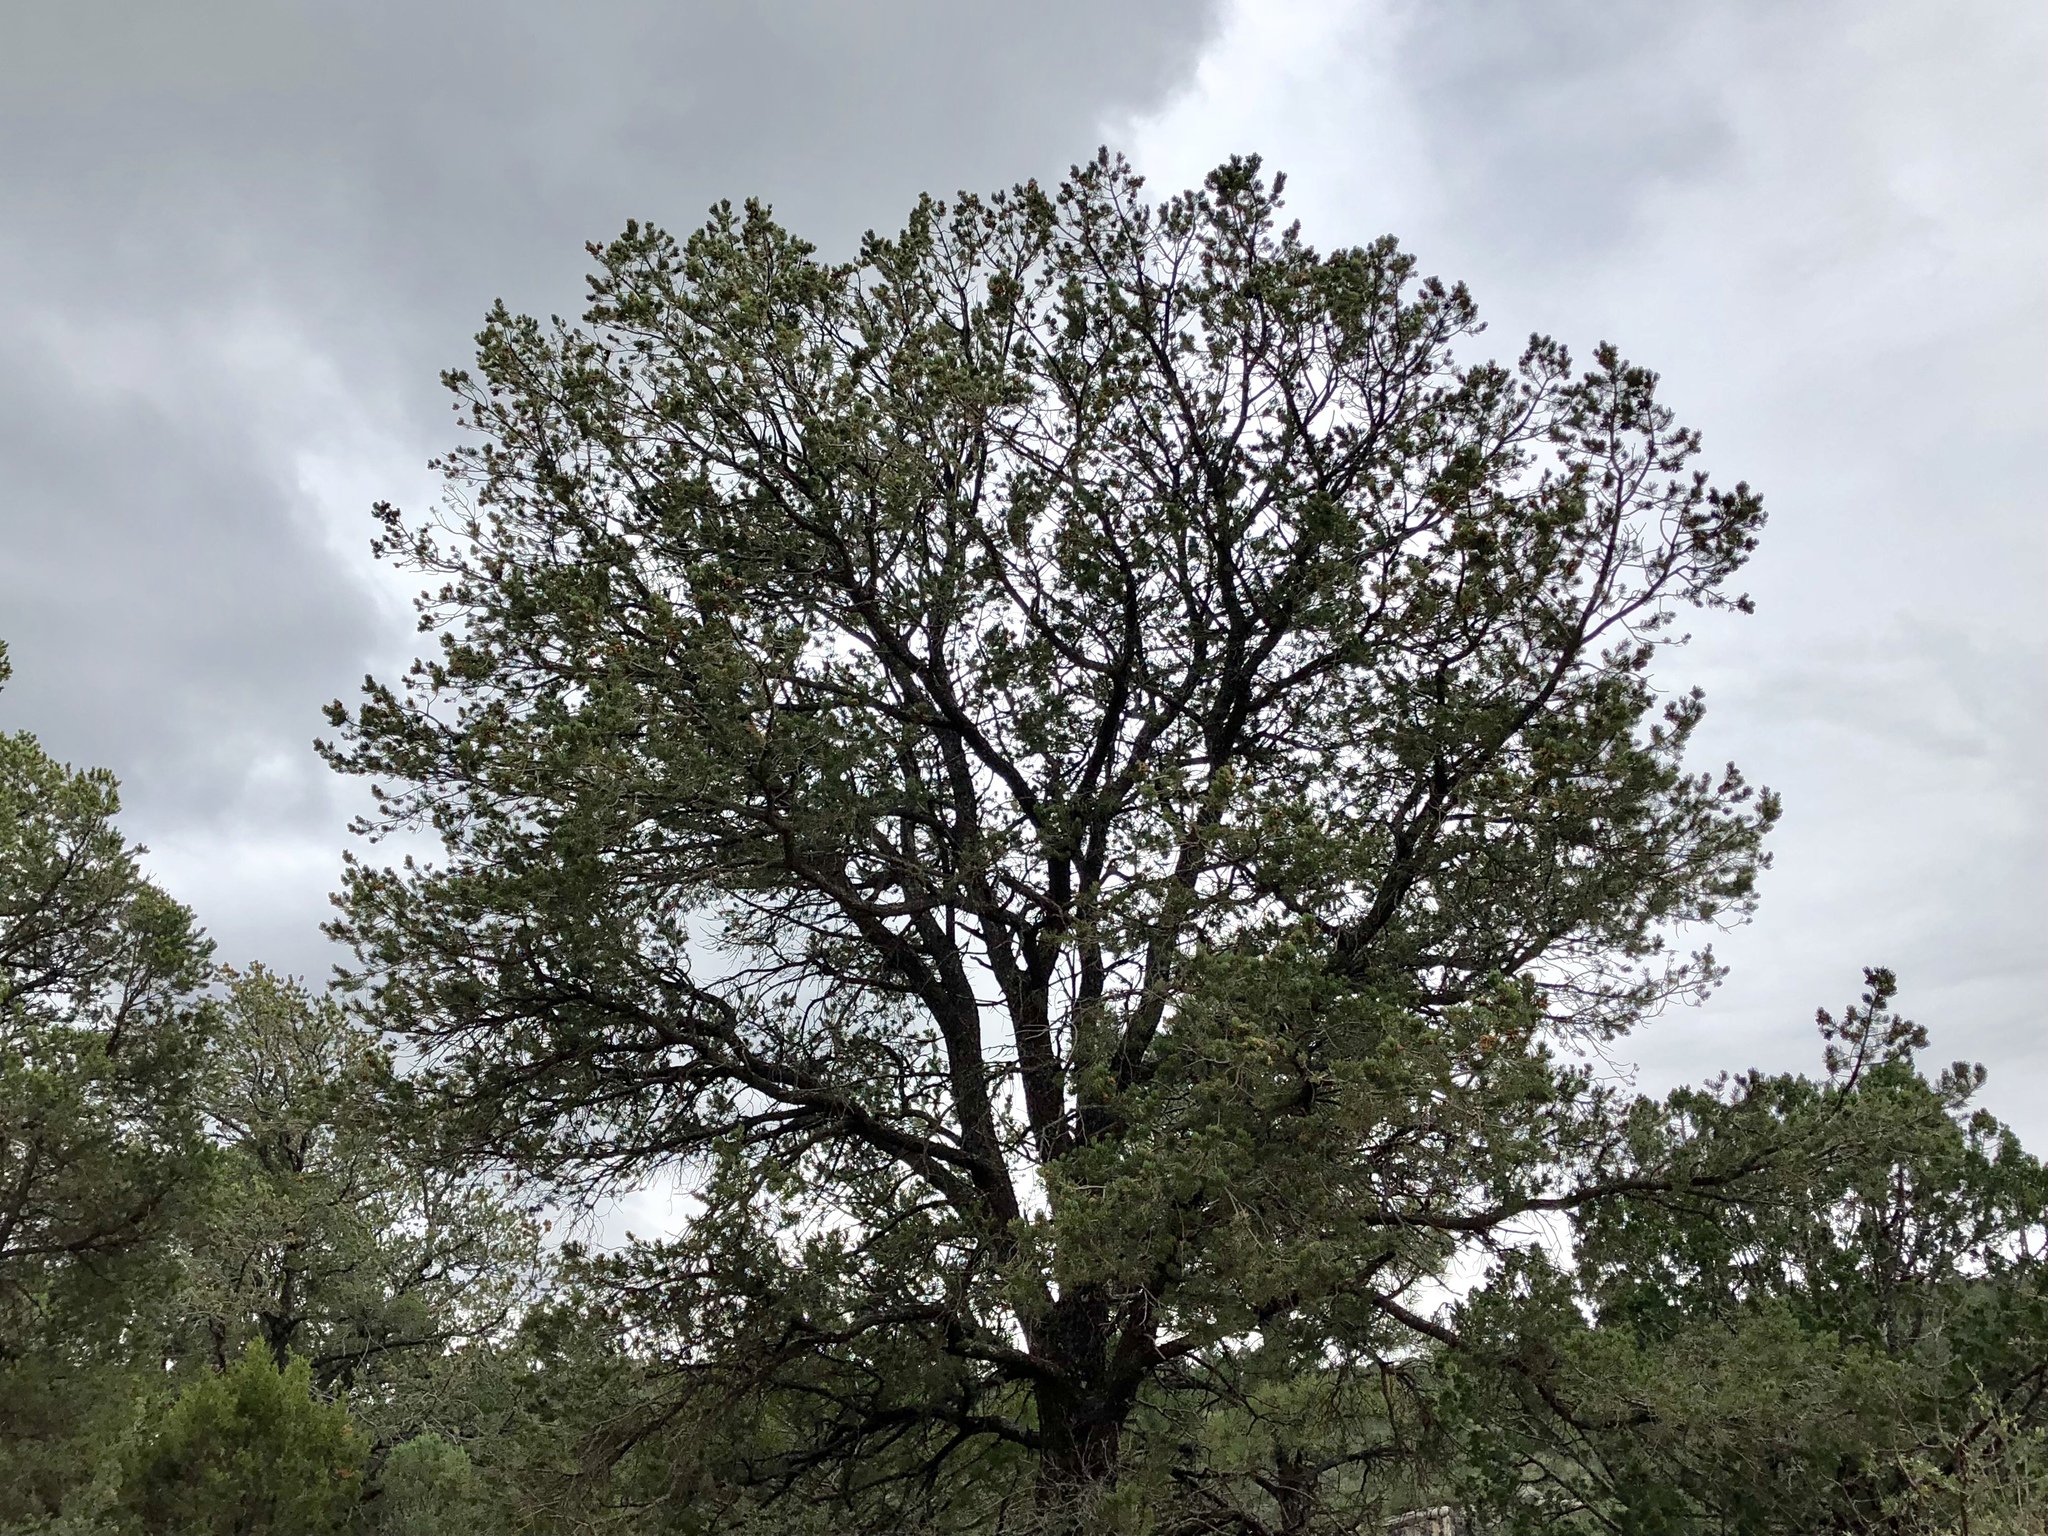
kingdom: Plantae
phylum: Tracheophyta
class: Pinopsida
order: Pinales
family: Pinaceae
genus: Pinus
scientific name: Pinus edulis
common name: Colorado pinyon
